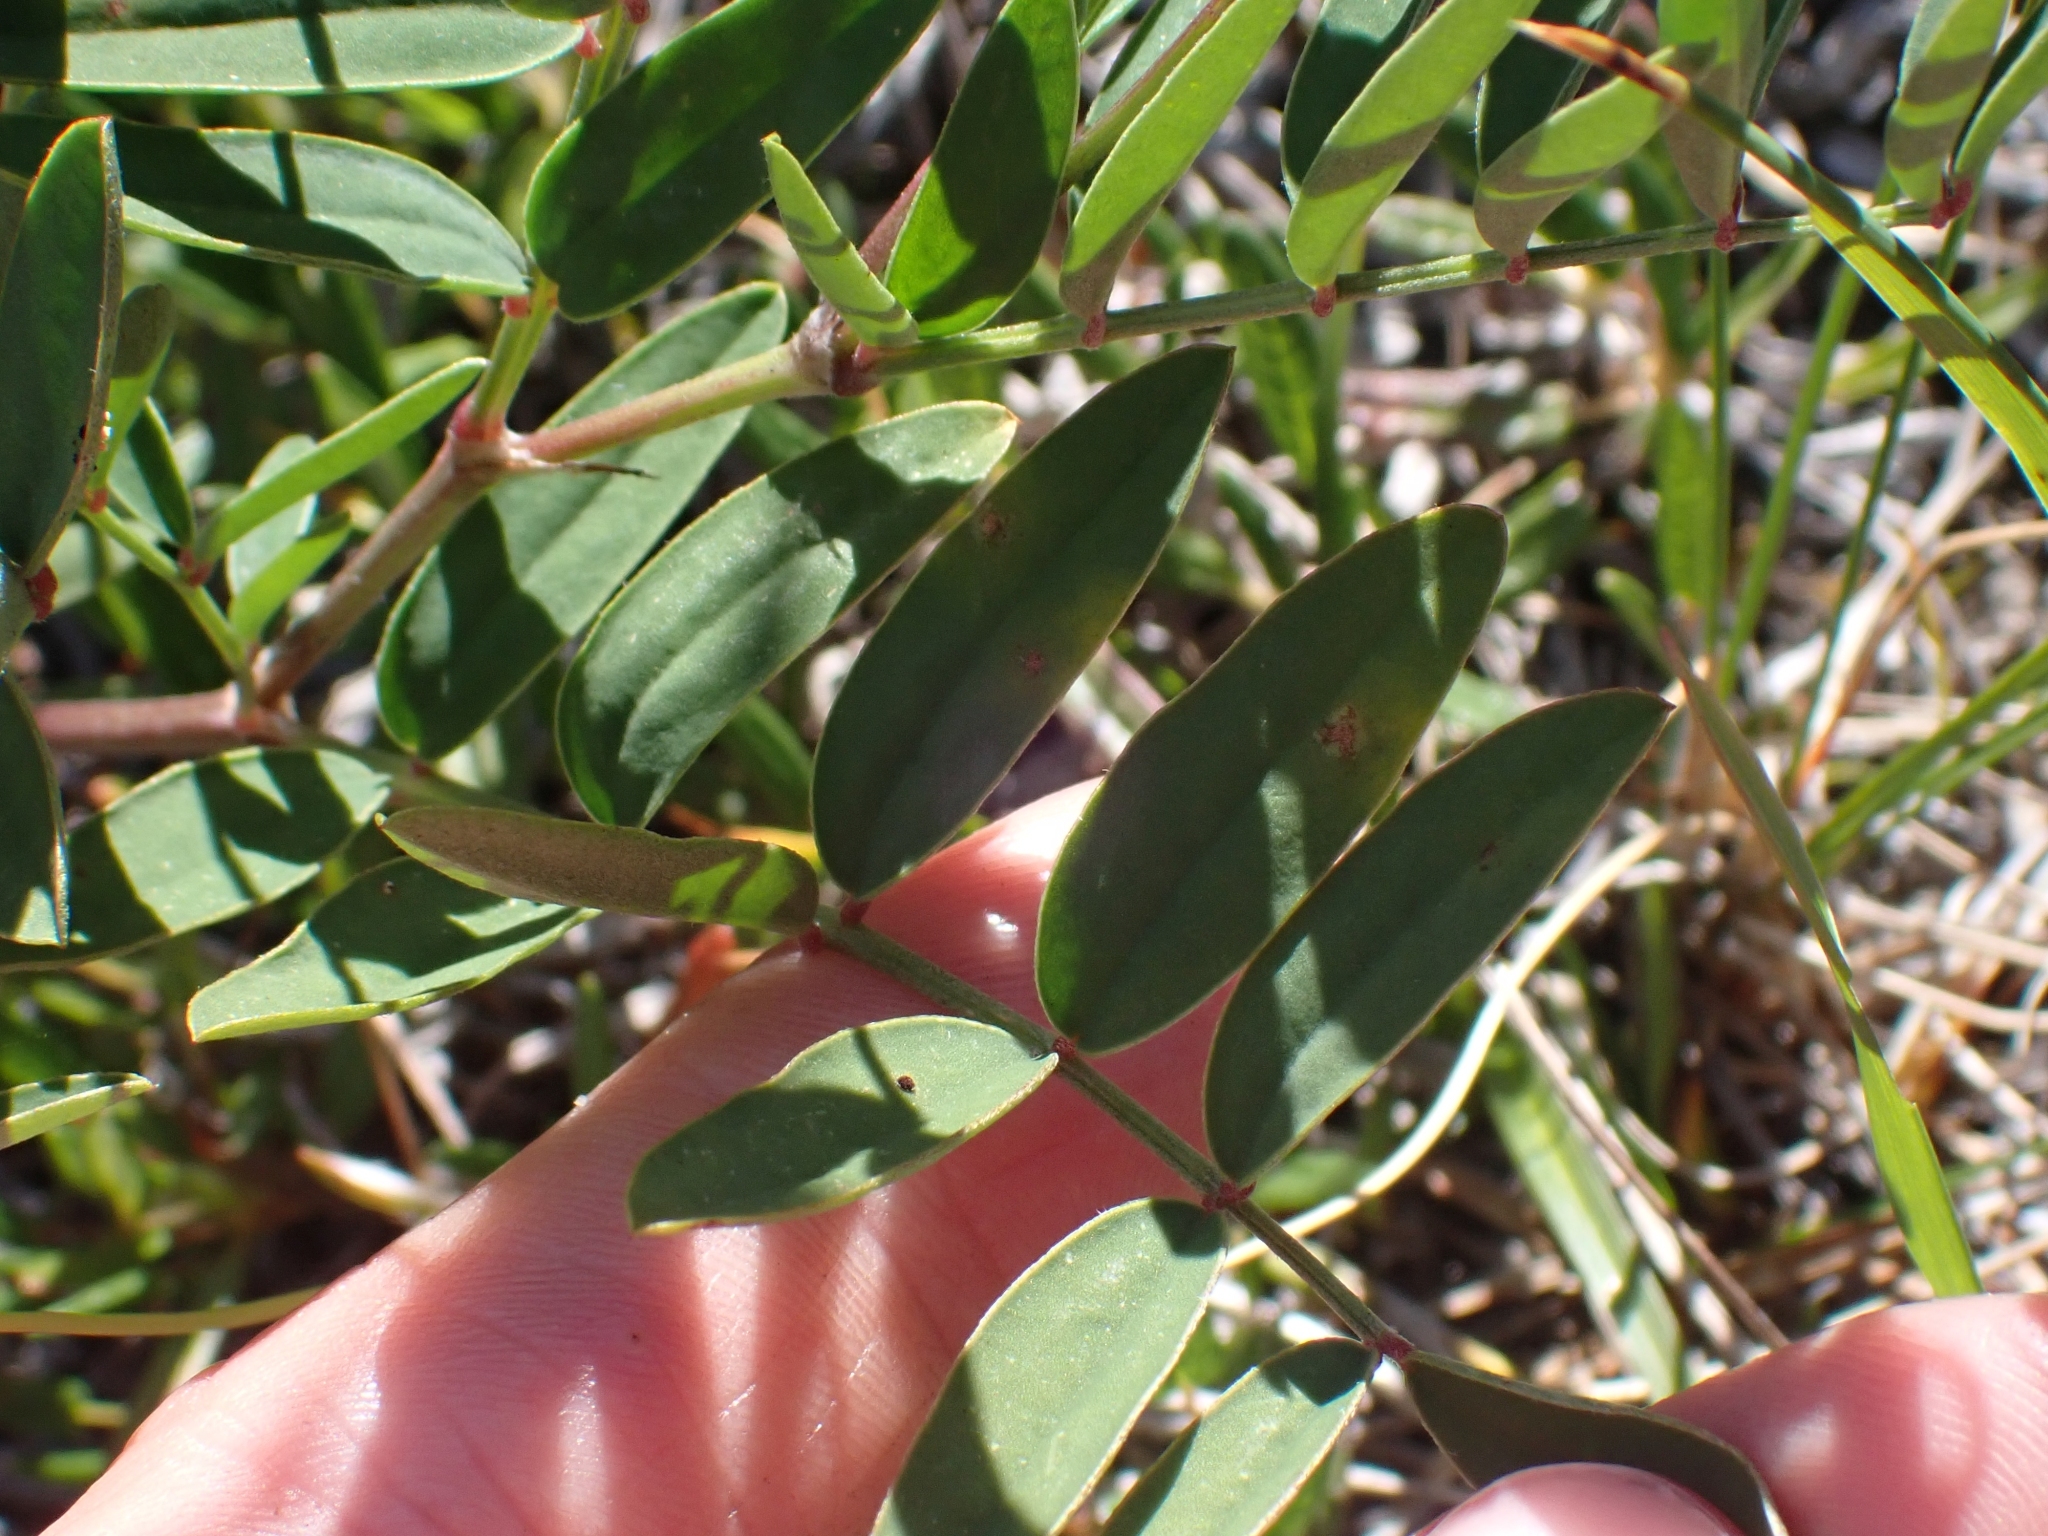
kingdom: Plantae
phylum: Tracheophyta
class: Magnoliopsida
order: Fabales
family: Fabaceae
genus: Hedysarum
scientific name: Hedysarum boreale
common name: Northern sweet-vetch
